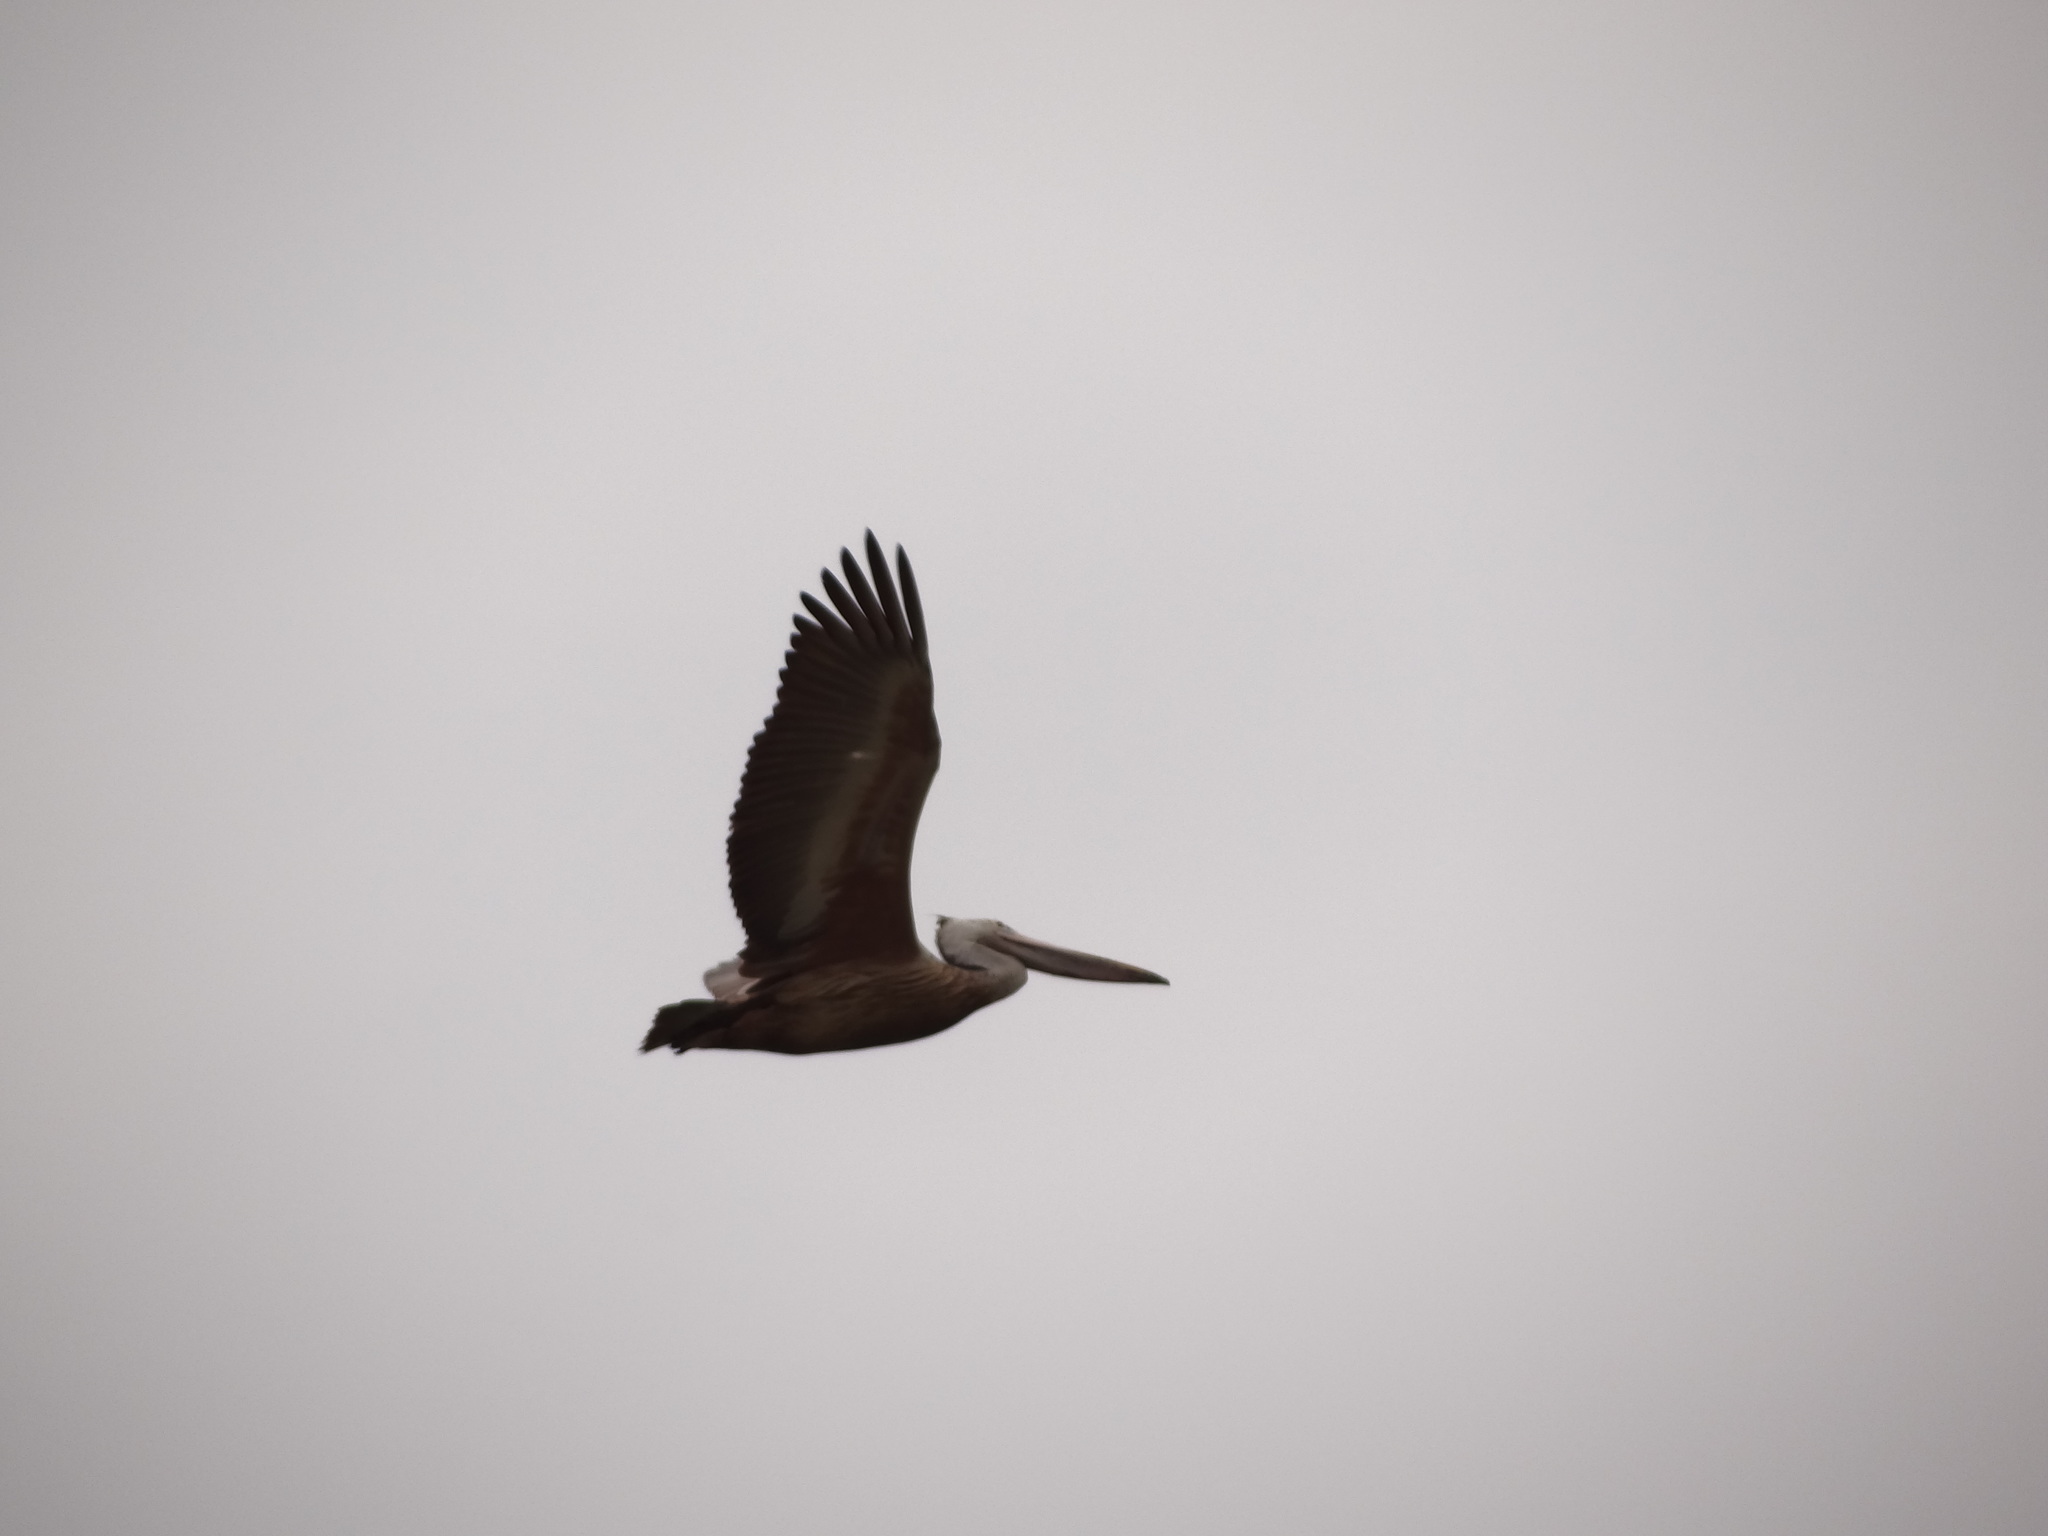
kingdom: Animalia
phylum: Chordata
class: Aves
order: Pelecaniformes
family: Pelecanidae
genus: Pelecanus
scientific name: Pelecanus philippensis
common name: Spot-billed pelican
